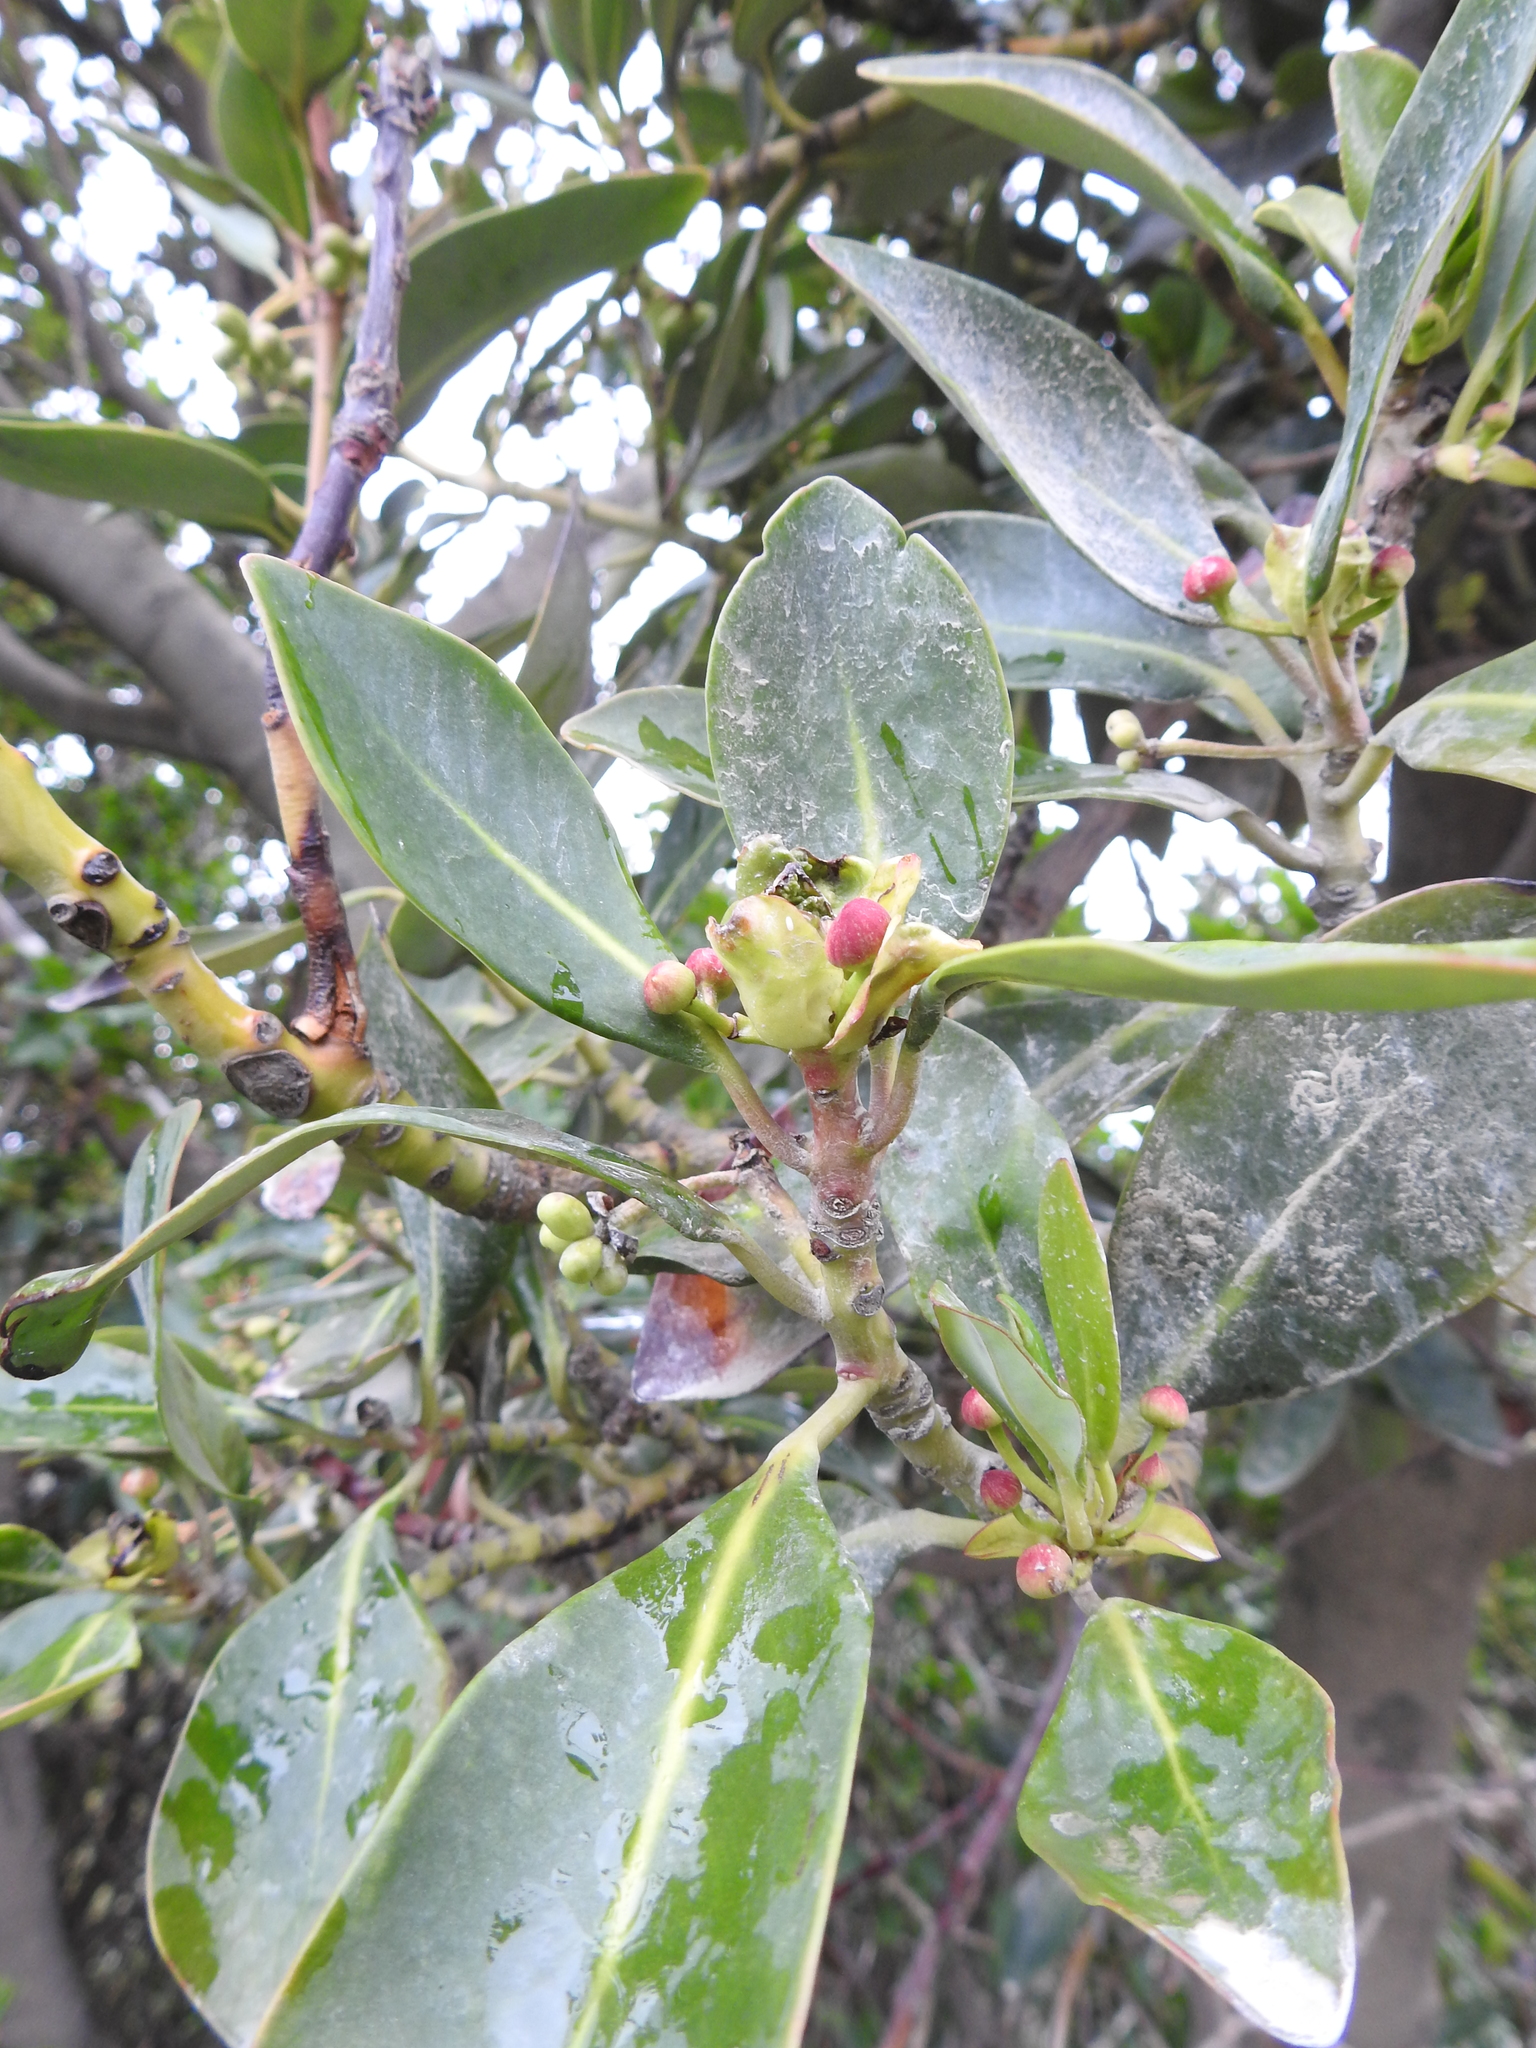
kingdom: Plantae
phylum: Tracheophyta
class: Magnoliopsida
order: Canellales
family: Winteraceae
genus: Drimys
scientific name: Drimys winteri
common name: Winter's-bark
